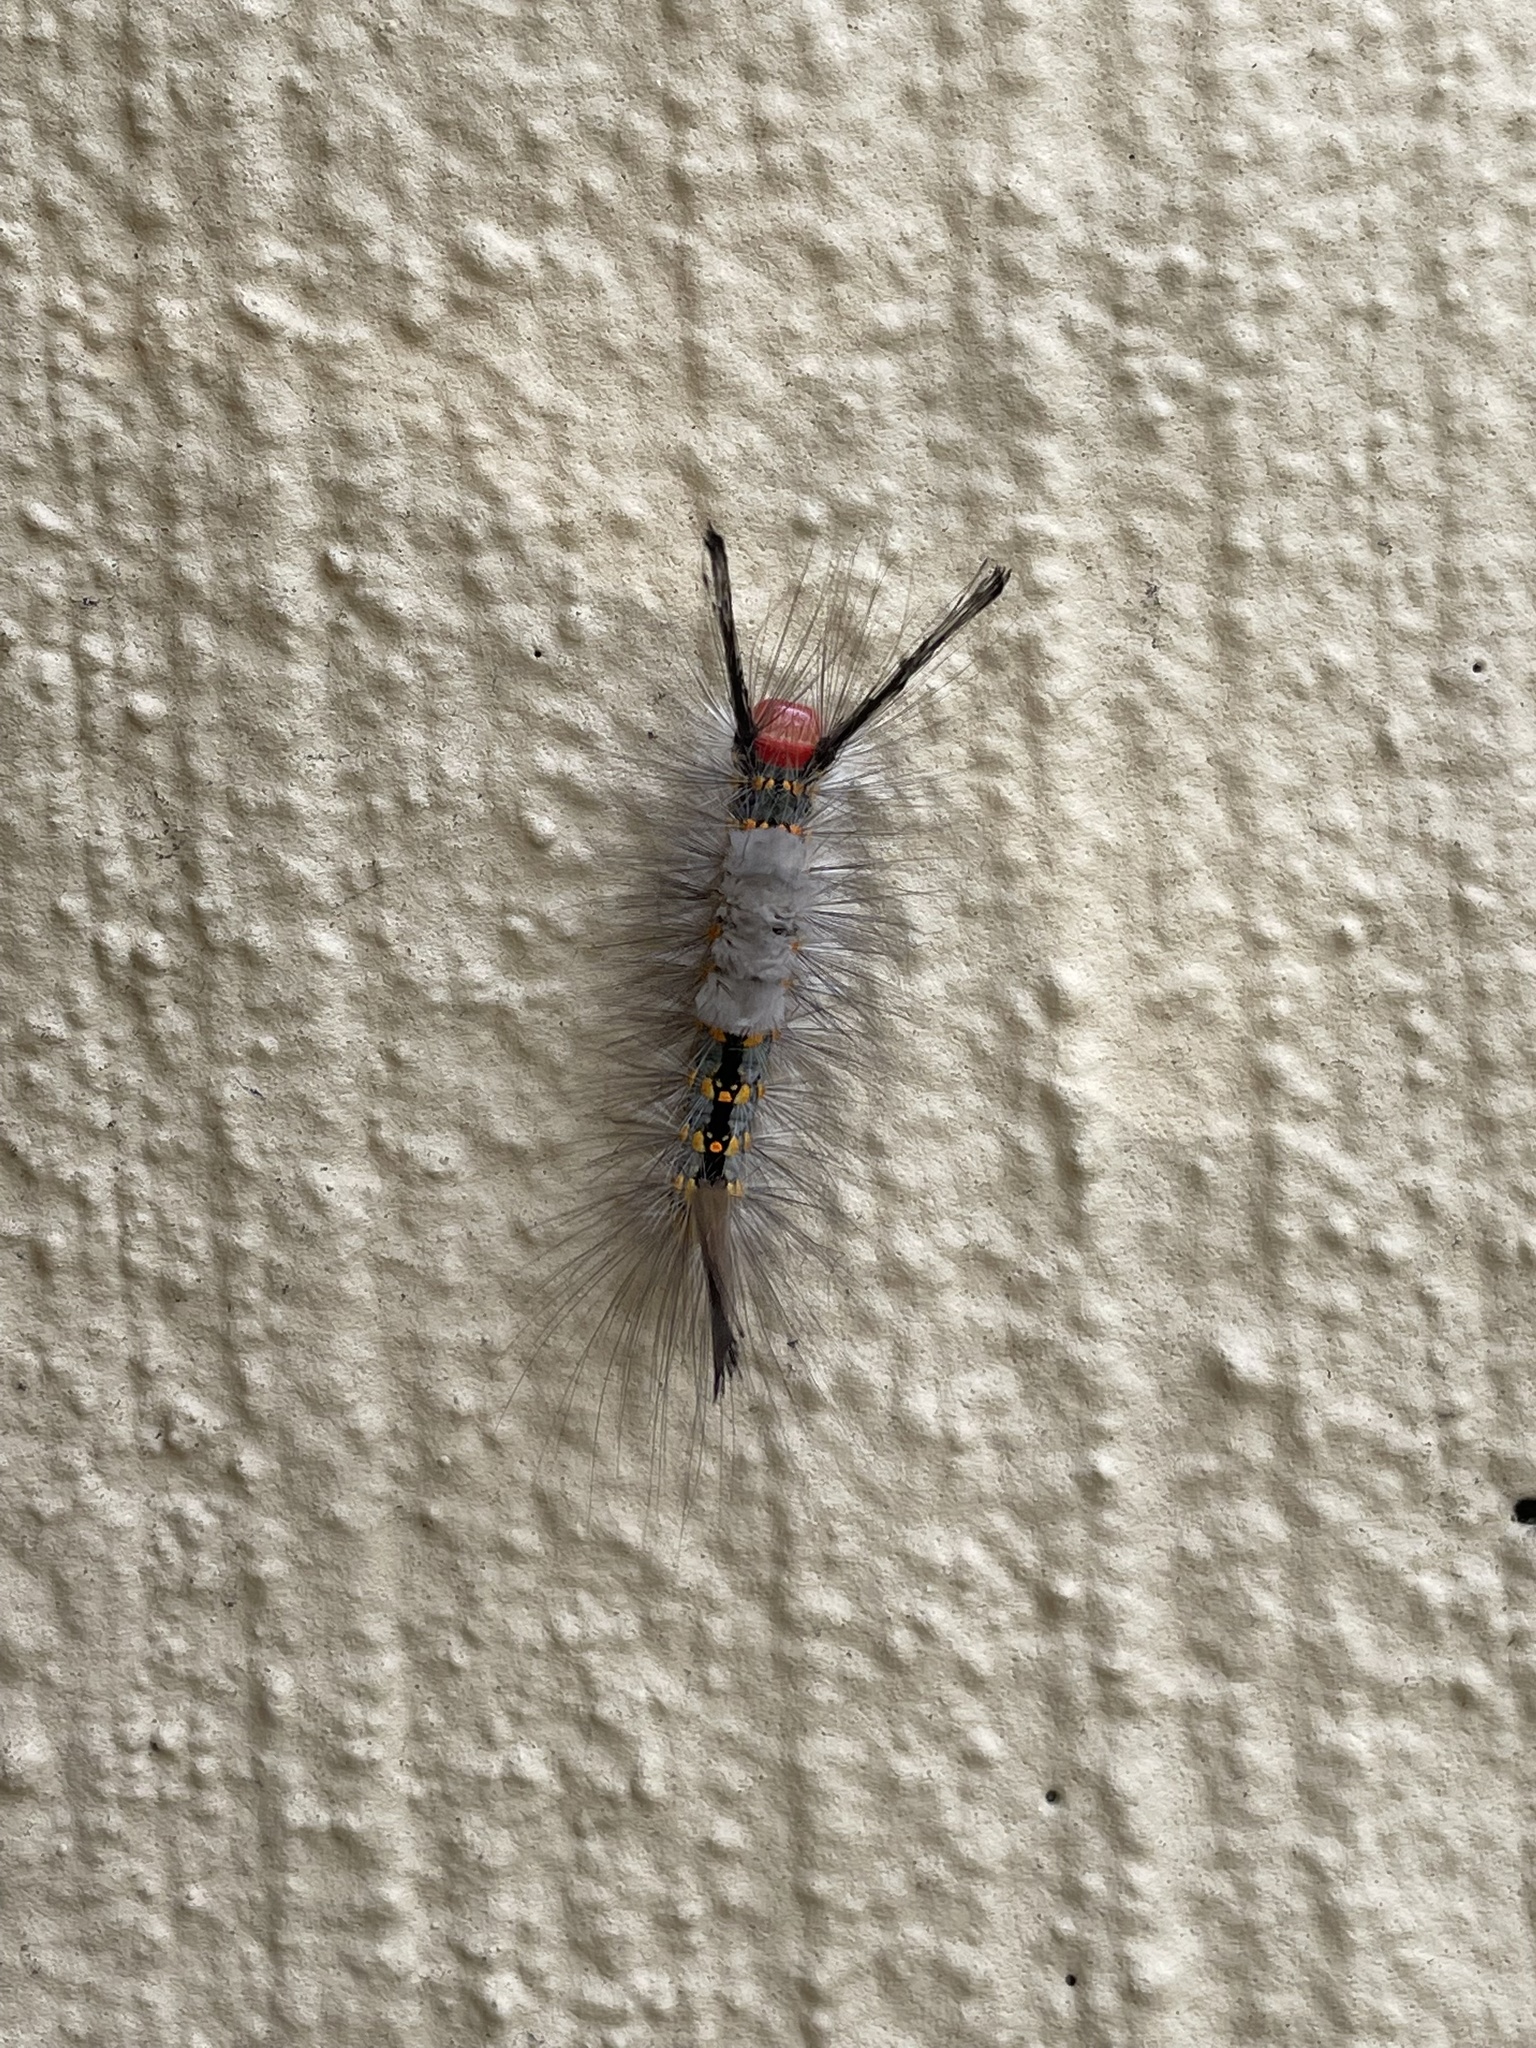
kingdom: Animalia
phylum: Arthropoda
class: Insecta
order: Lepidoptera
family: Erebidae
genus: Orgyia
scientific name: Orgyia detrita
